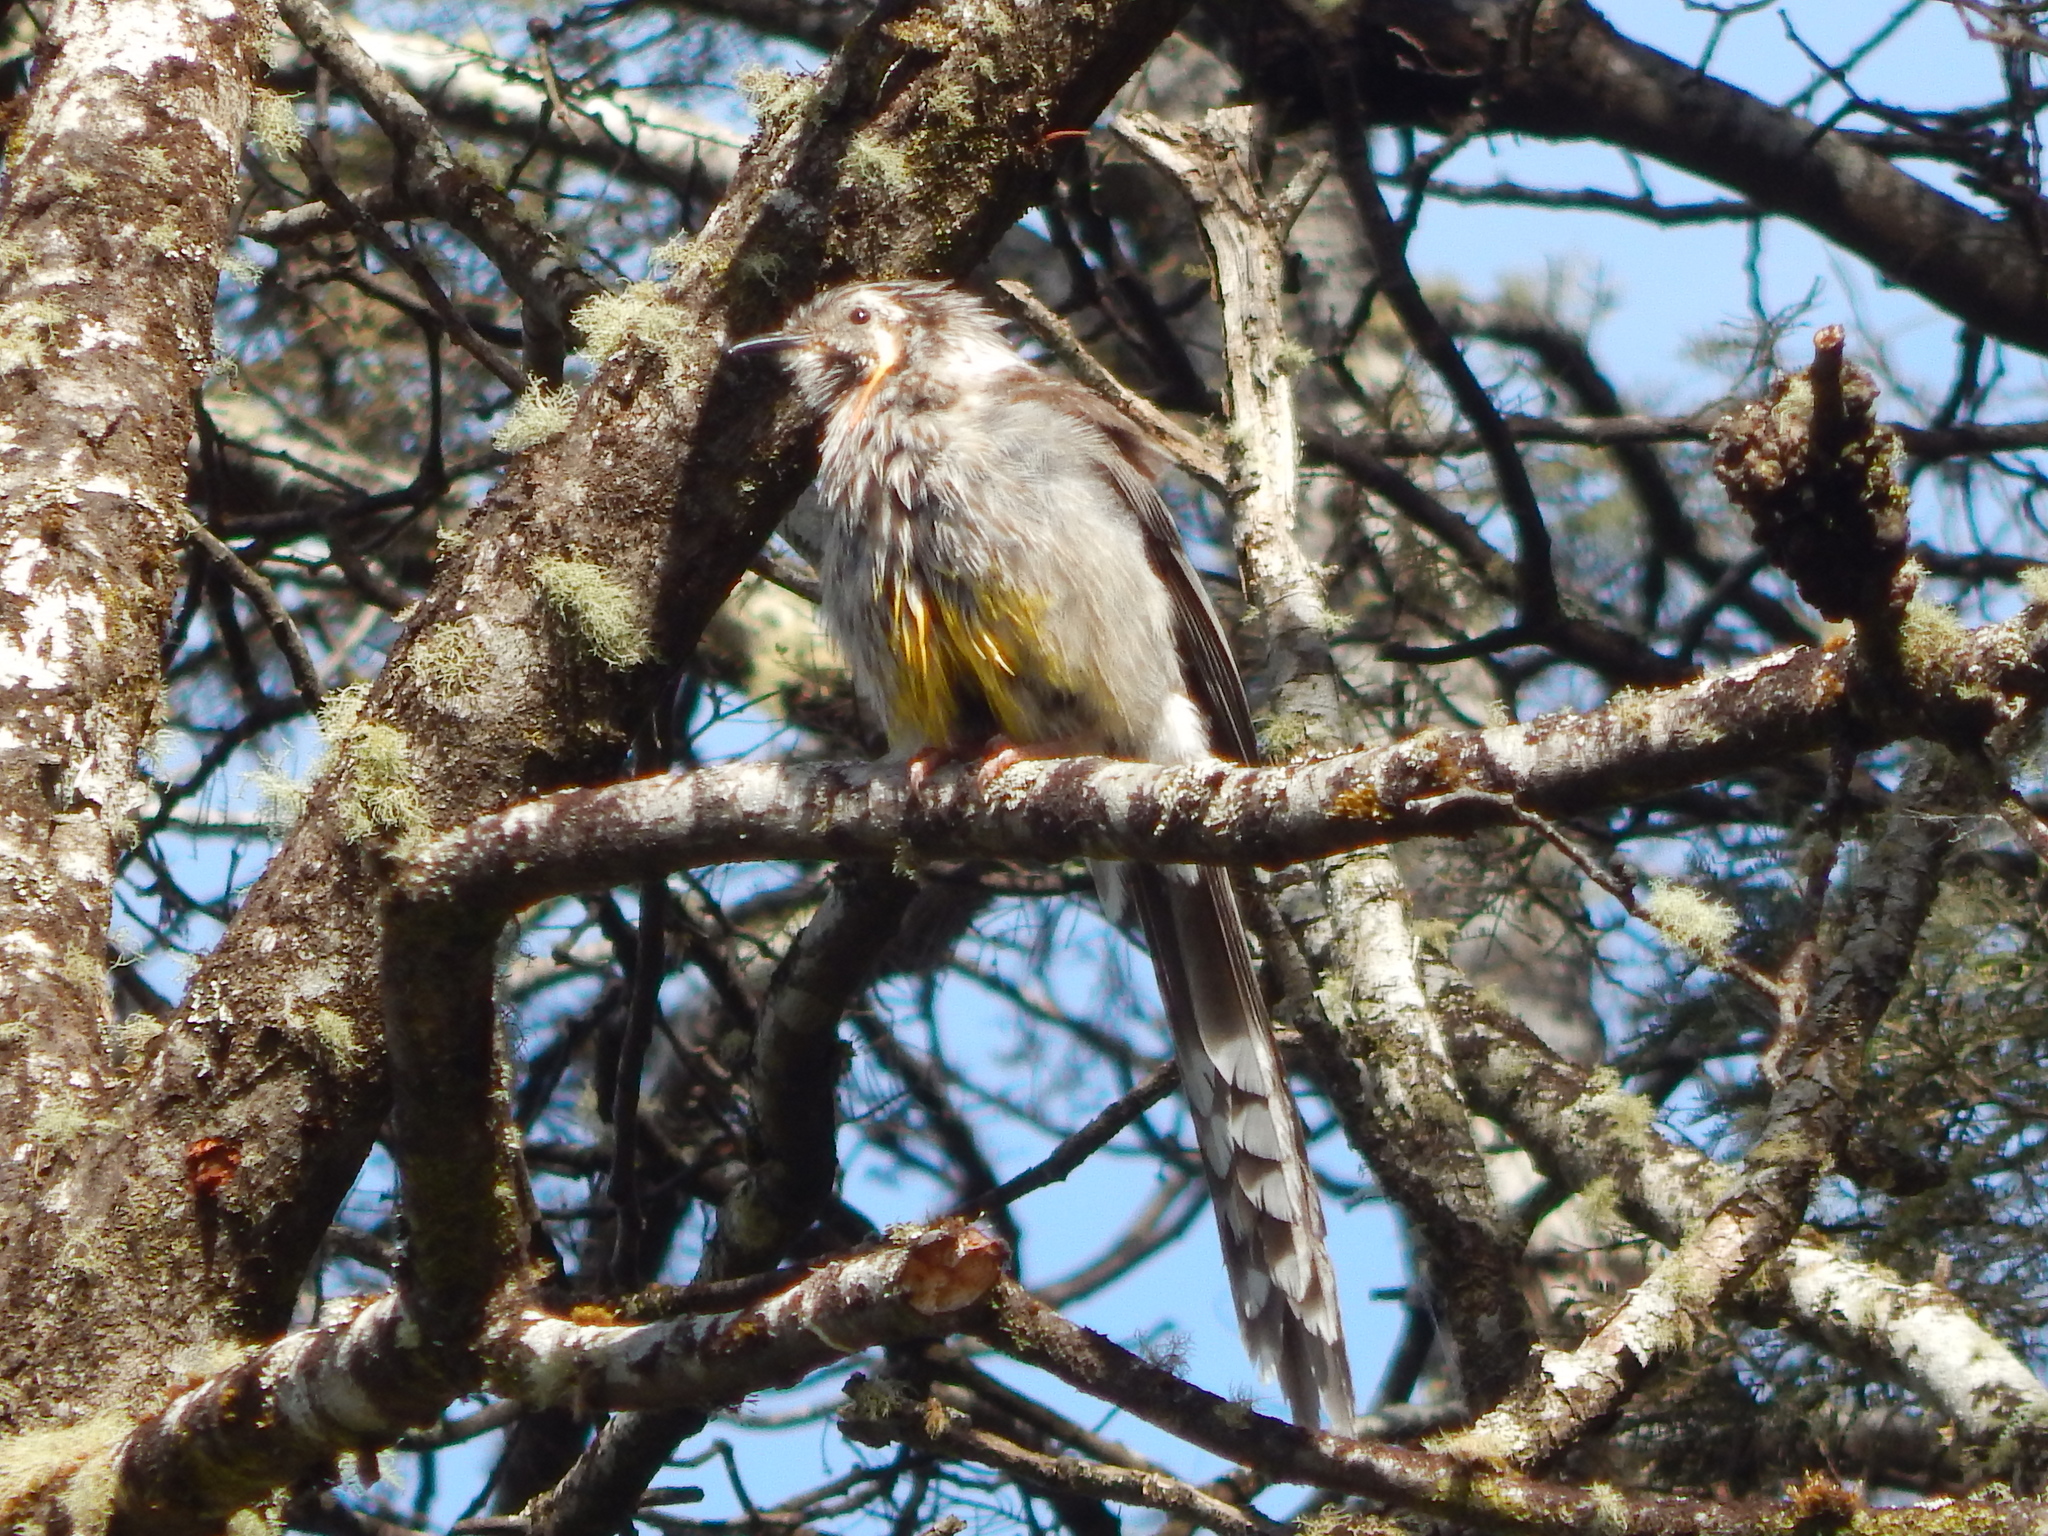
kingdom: Animalia
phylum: Chordata
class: Aves
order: Passeriformes
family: Meliphagidae
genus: Anthochaera
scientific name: Anthochaera paradoxa
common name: Yellow wattlebird
